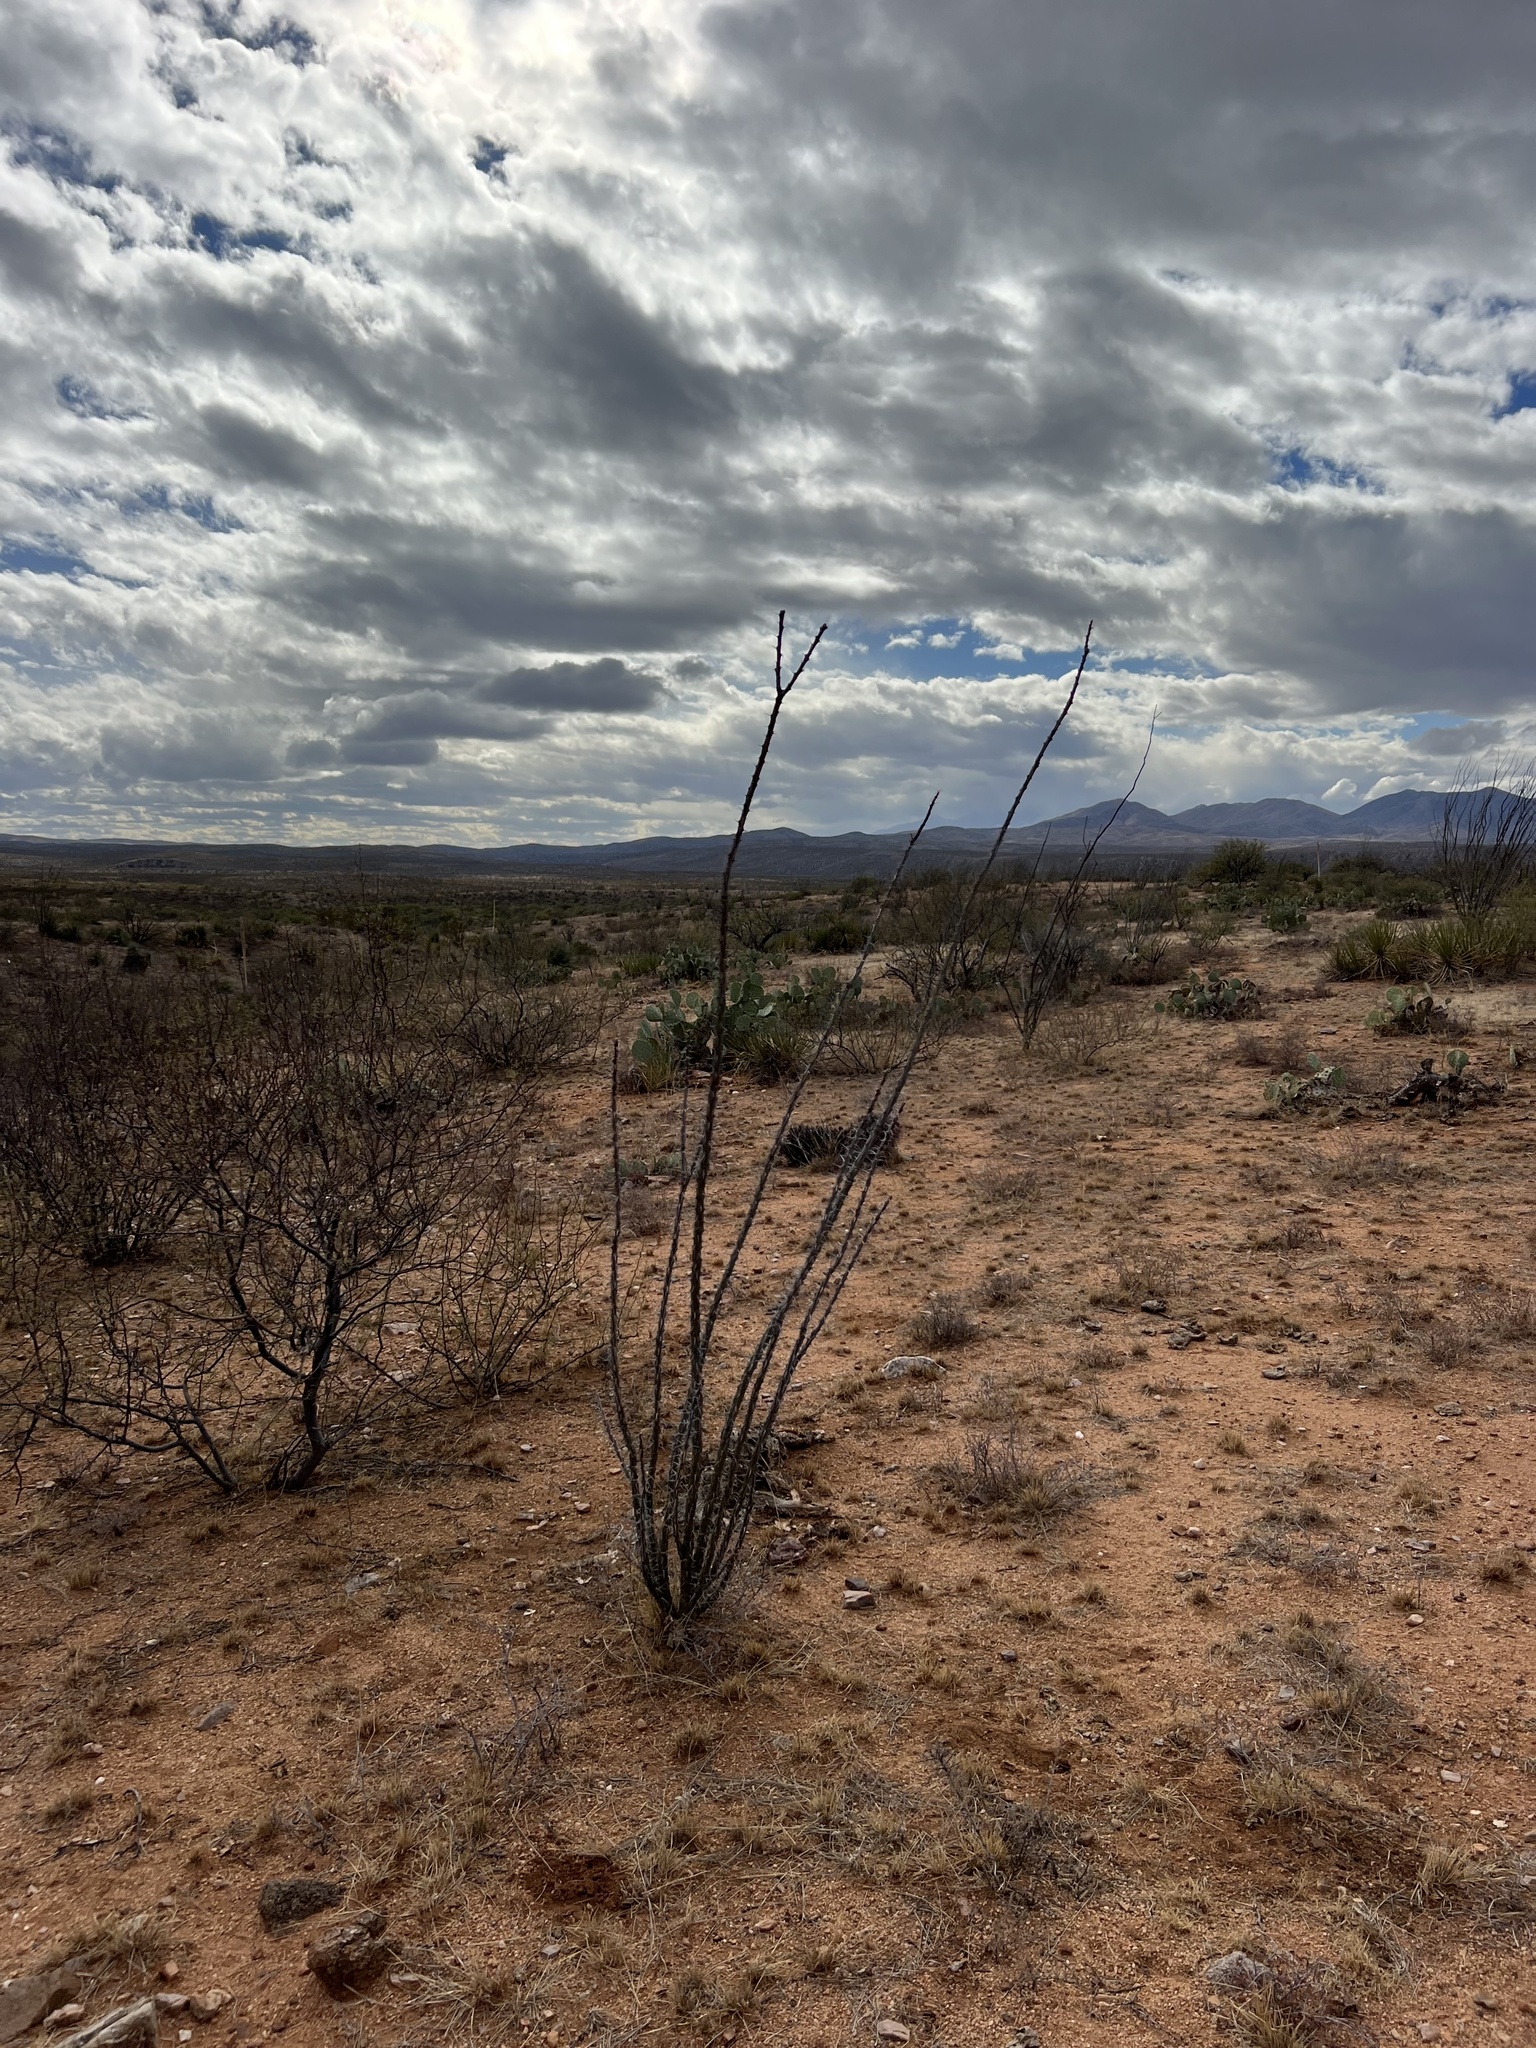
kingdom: Plantae
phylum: Tracheophyta
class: Magnoliopsida
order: Ericales
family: Fouquieriaceae
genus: Fouquieria
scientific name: Fouquieria splendens
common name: Vine-cactus
